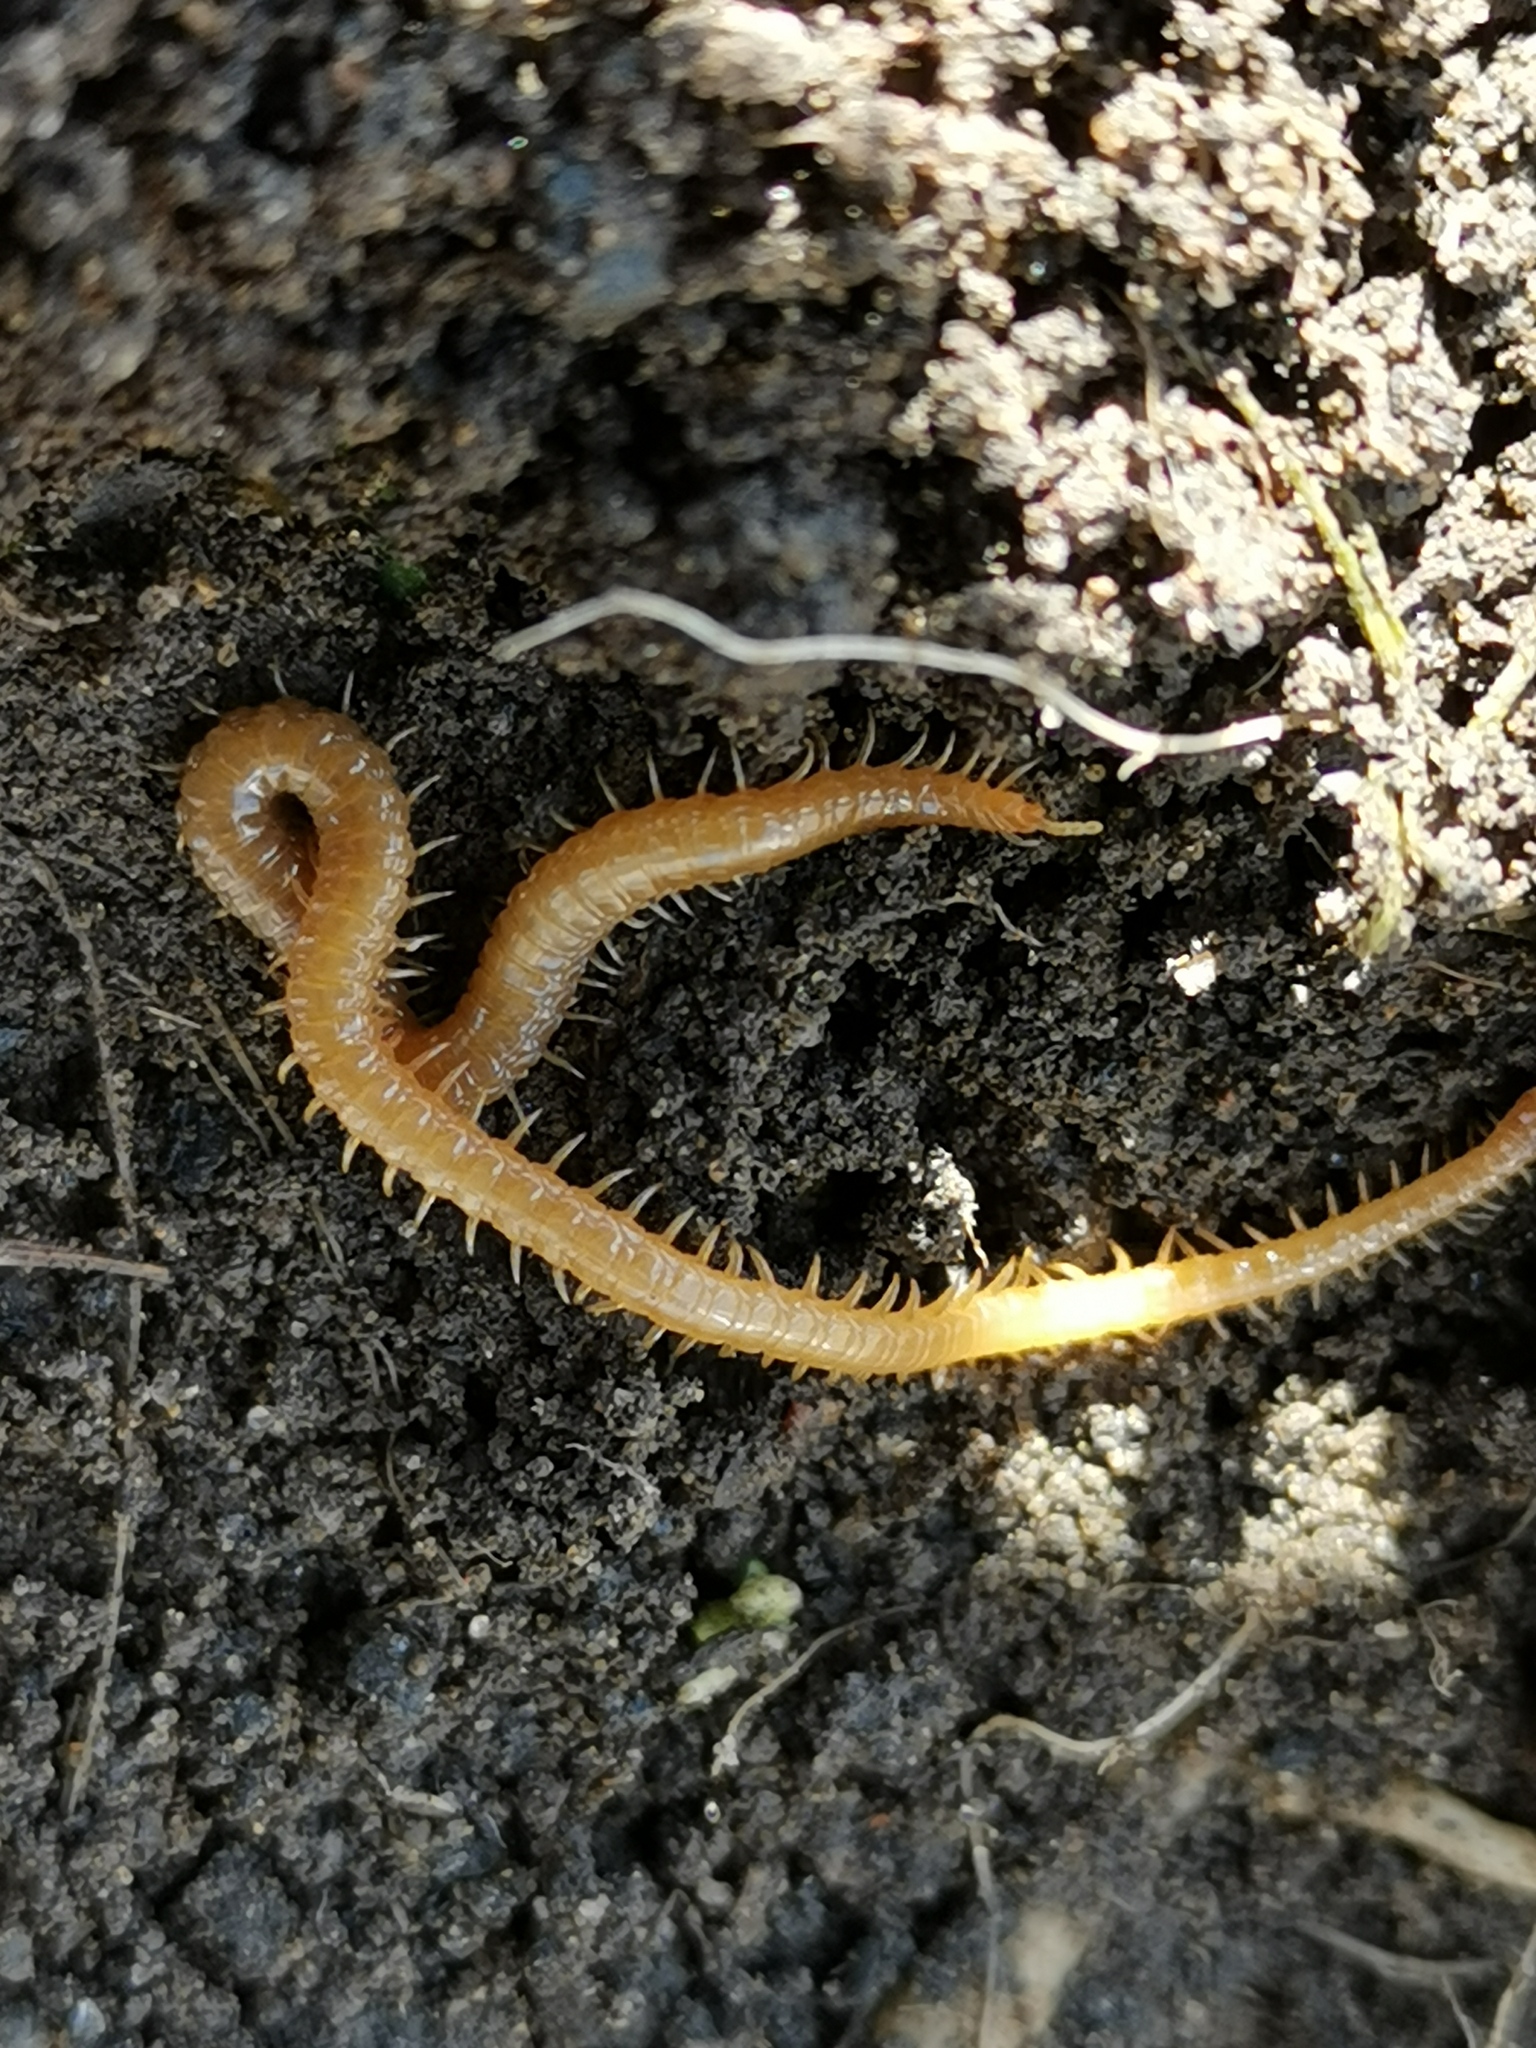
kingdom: Animalia
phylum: Arthropoda
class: Chilopoda
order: Geophilomorpha
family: Himantariidae
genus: Stigmatogaster
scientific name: Stigmatogaster subterranea
